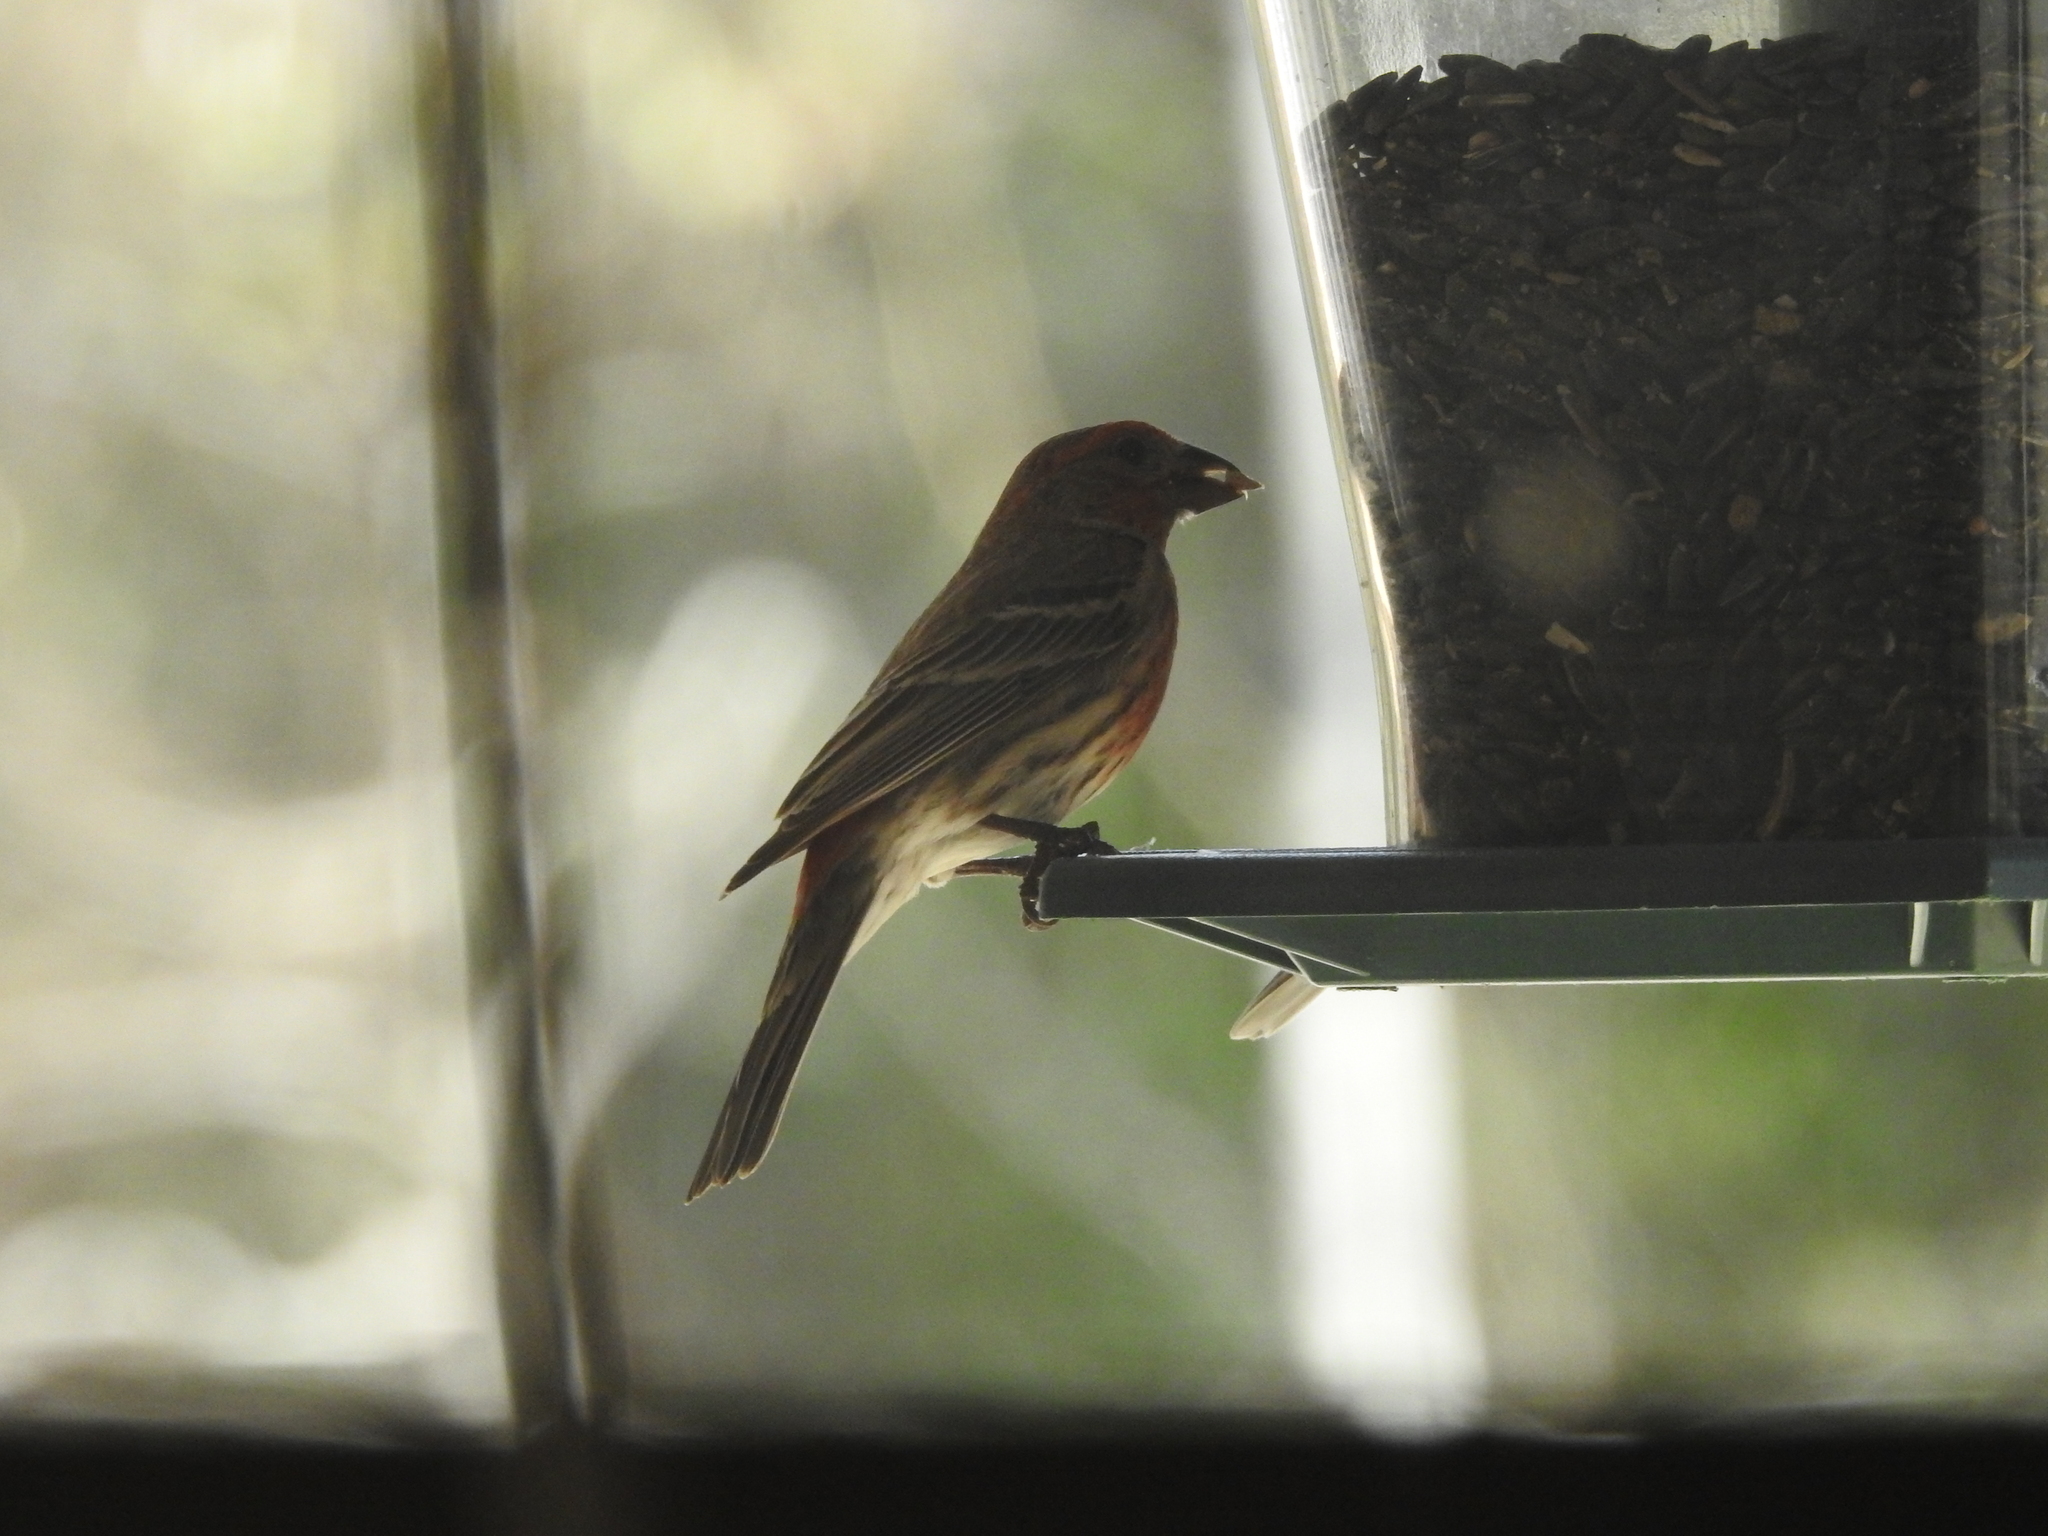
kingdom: Animalia
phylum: Chordata
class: Aves
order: Passeriformes
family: Fringillidae
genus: Haemorhous
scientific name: Haemorhous mexicanus
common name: House finch
